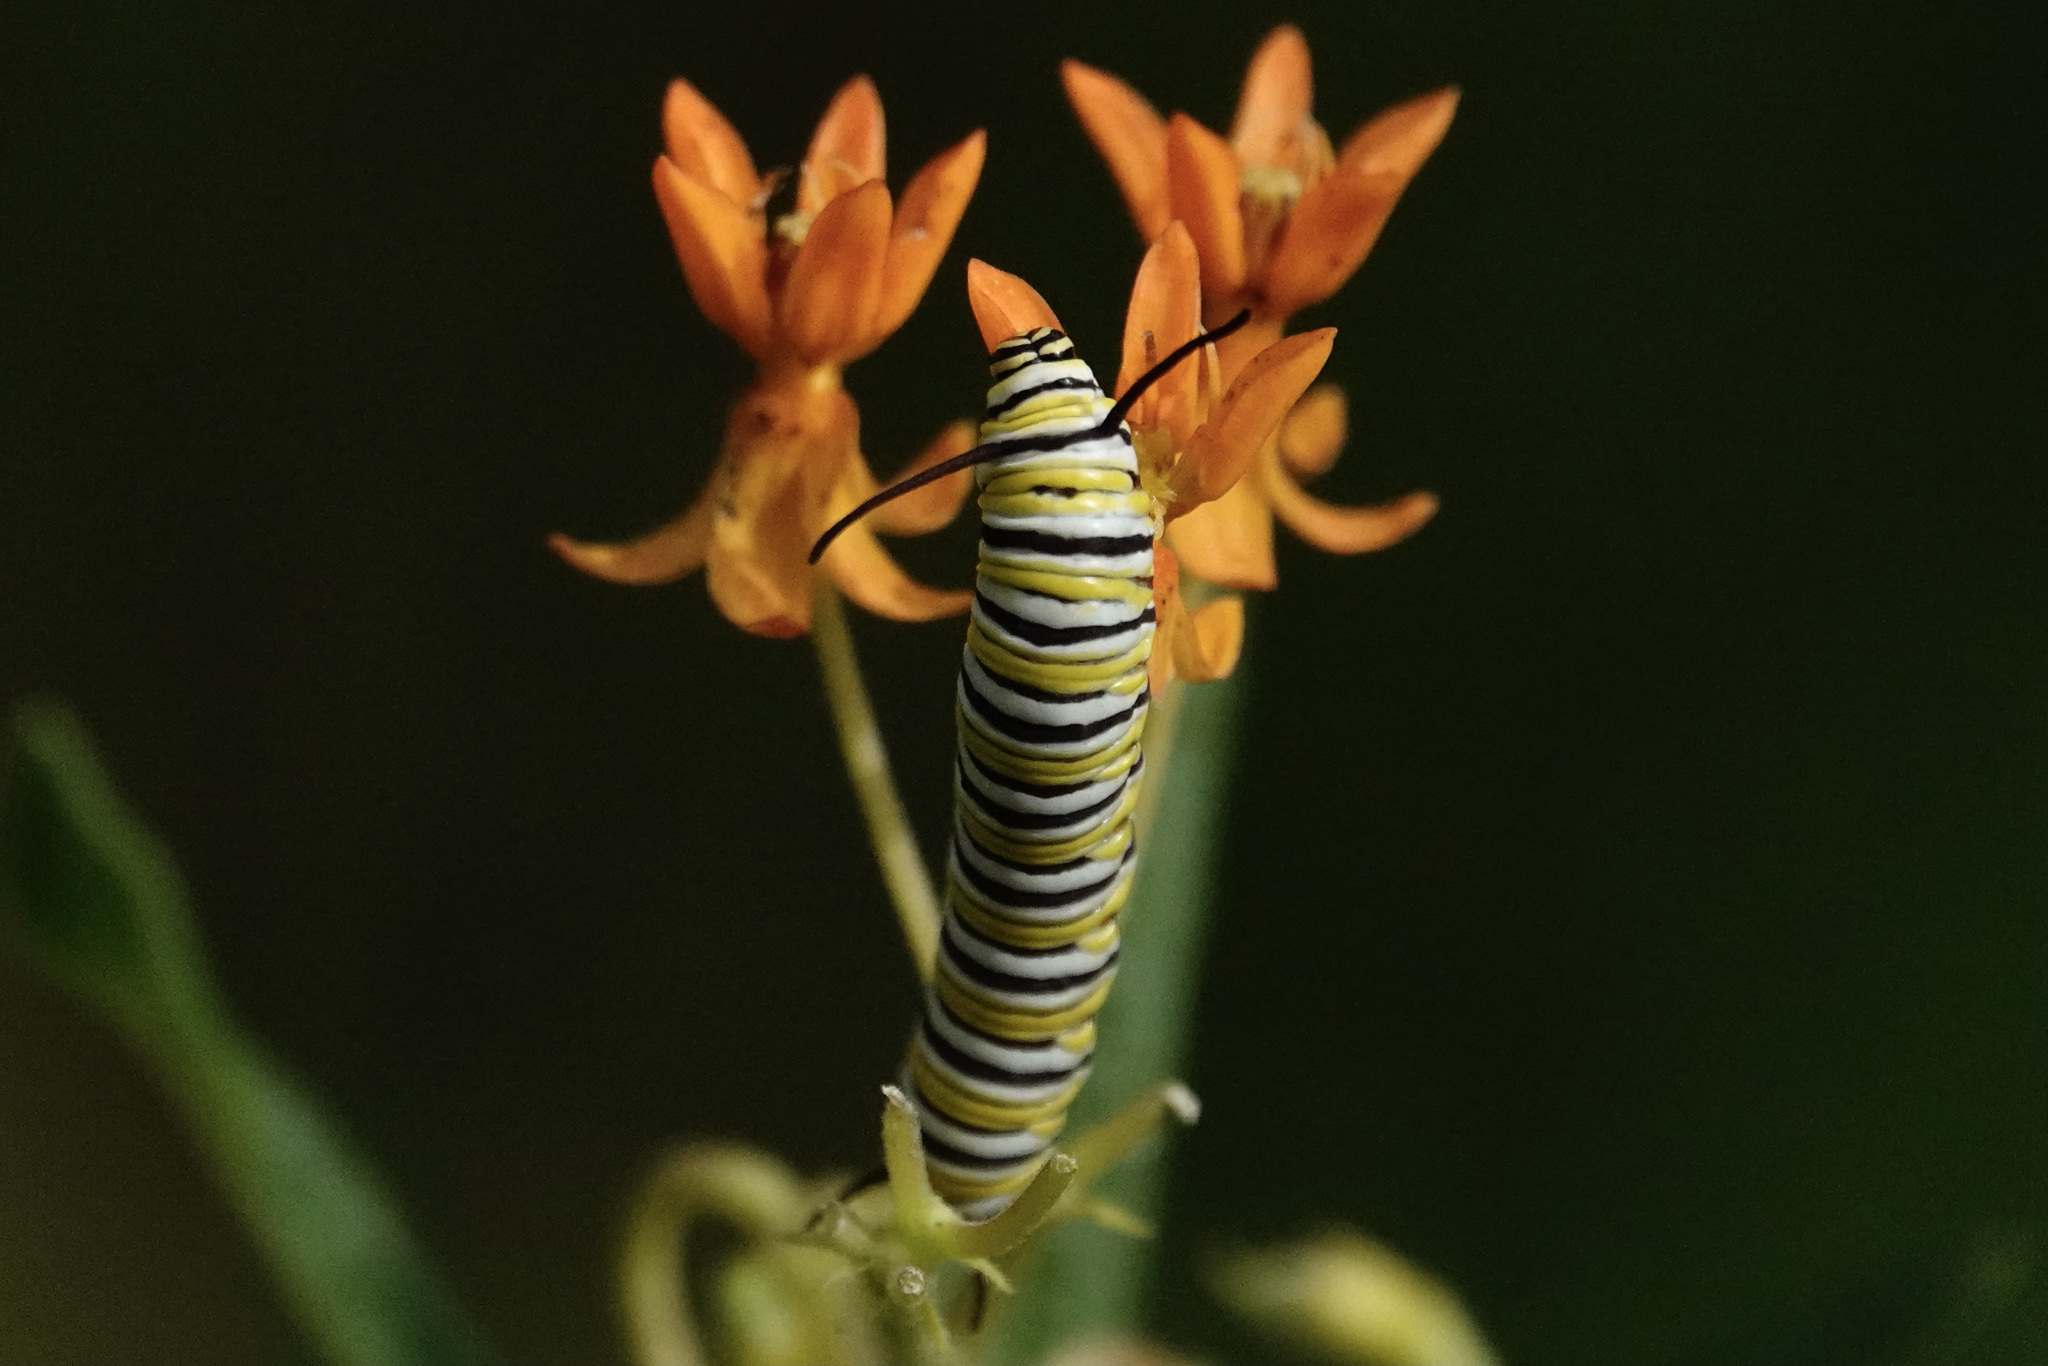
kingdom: Animalia
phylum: Arthropoda
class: Insecta
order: Lepidoptera
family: Nymphalidae
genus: Danaus
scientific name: Danaus plexippus
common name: Monarch
